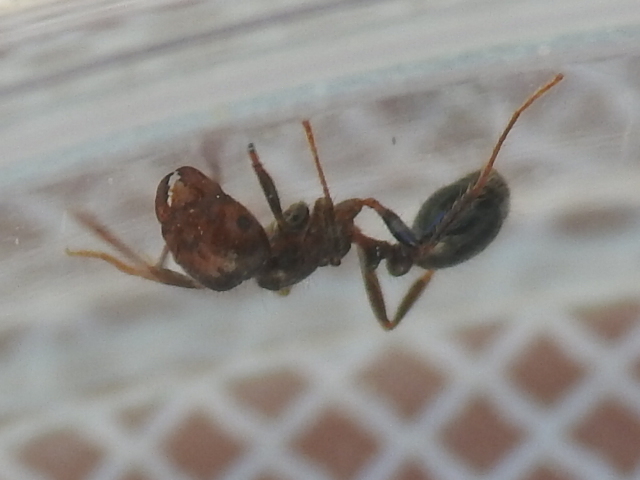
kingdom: Animalia
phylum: Arthropoda
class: Insecta
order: Hymenoptera
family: Formicidae
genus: Solenopsis
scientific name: Solenopsis invicta
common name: Red imported fire ant
